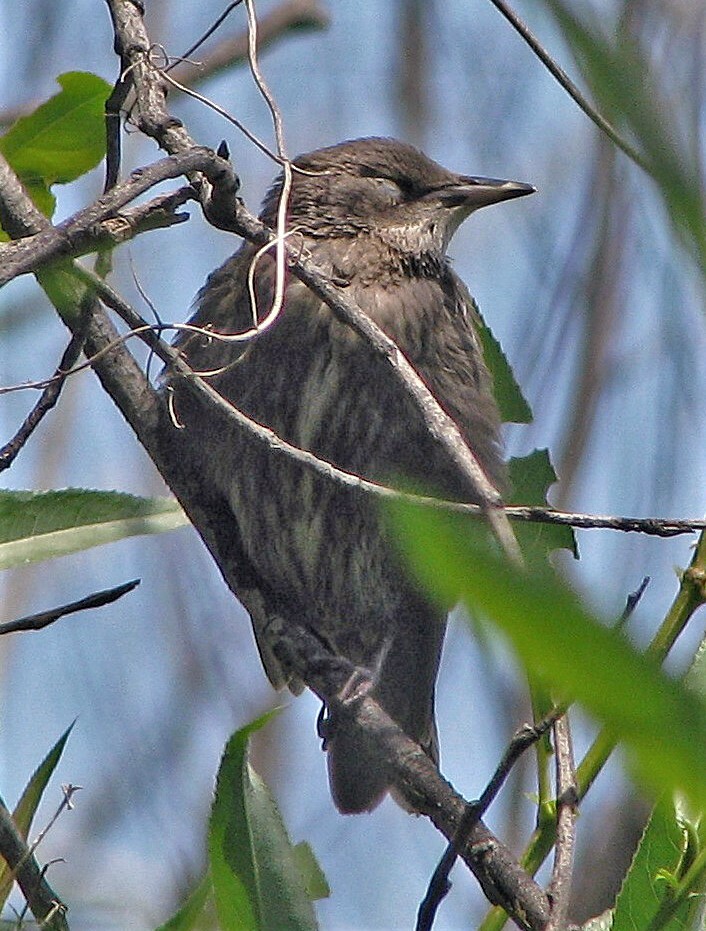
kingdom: Animalia
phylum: Chordata
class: Aves
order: Passeriformes
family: Sturnidae
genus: Sturnus
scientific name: Sturnus vulgaris
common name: Common starling
